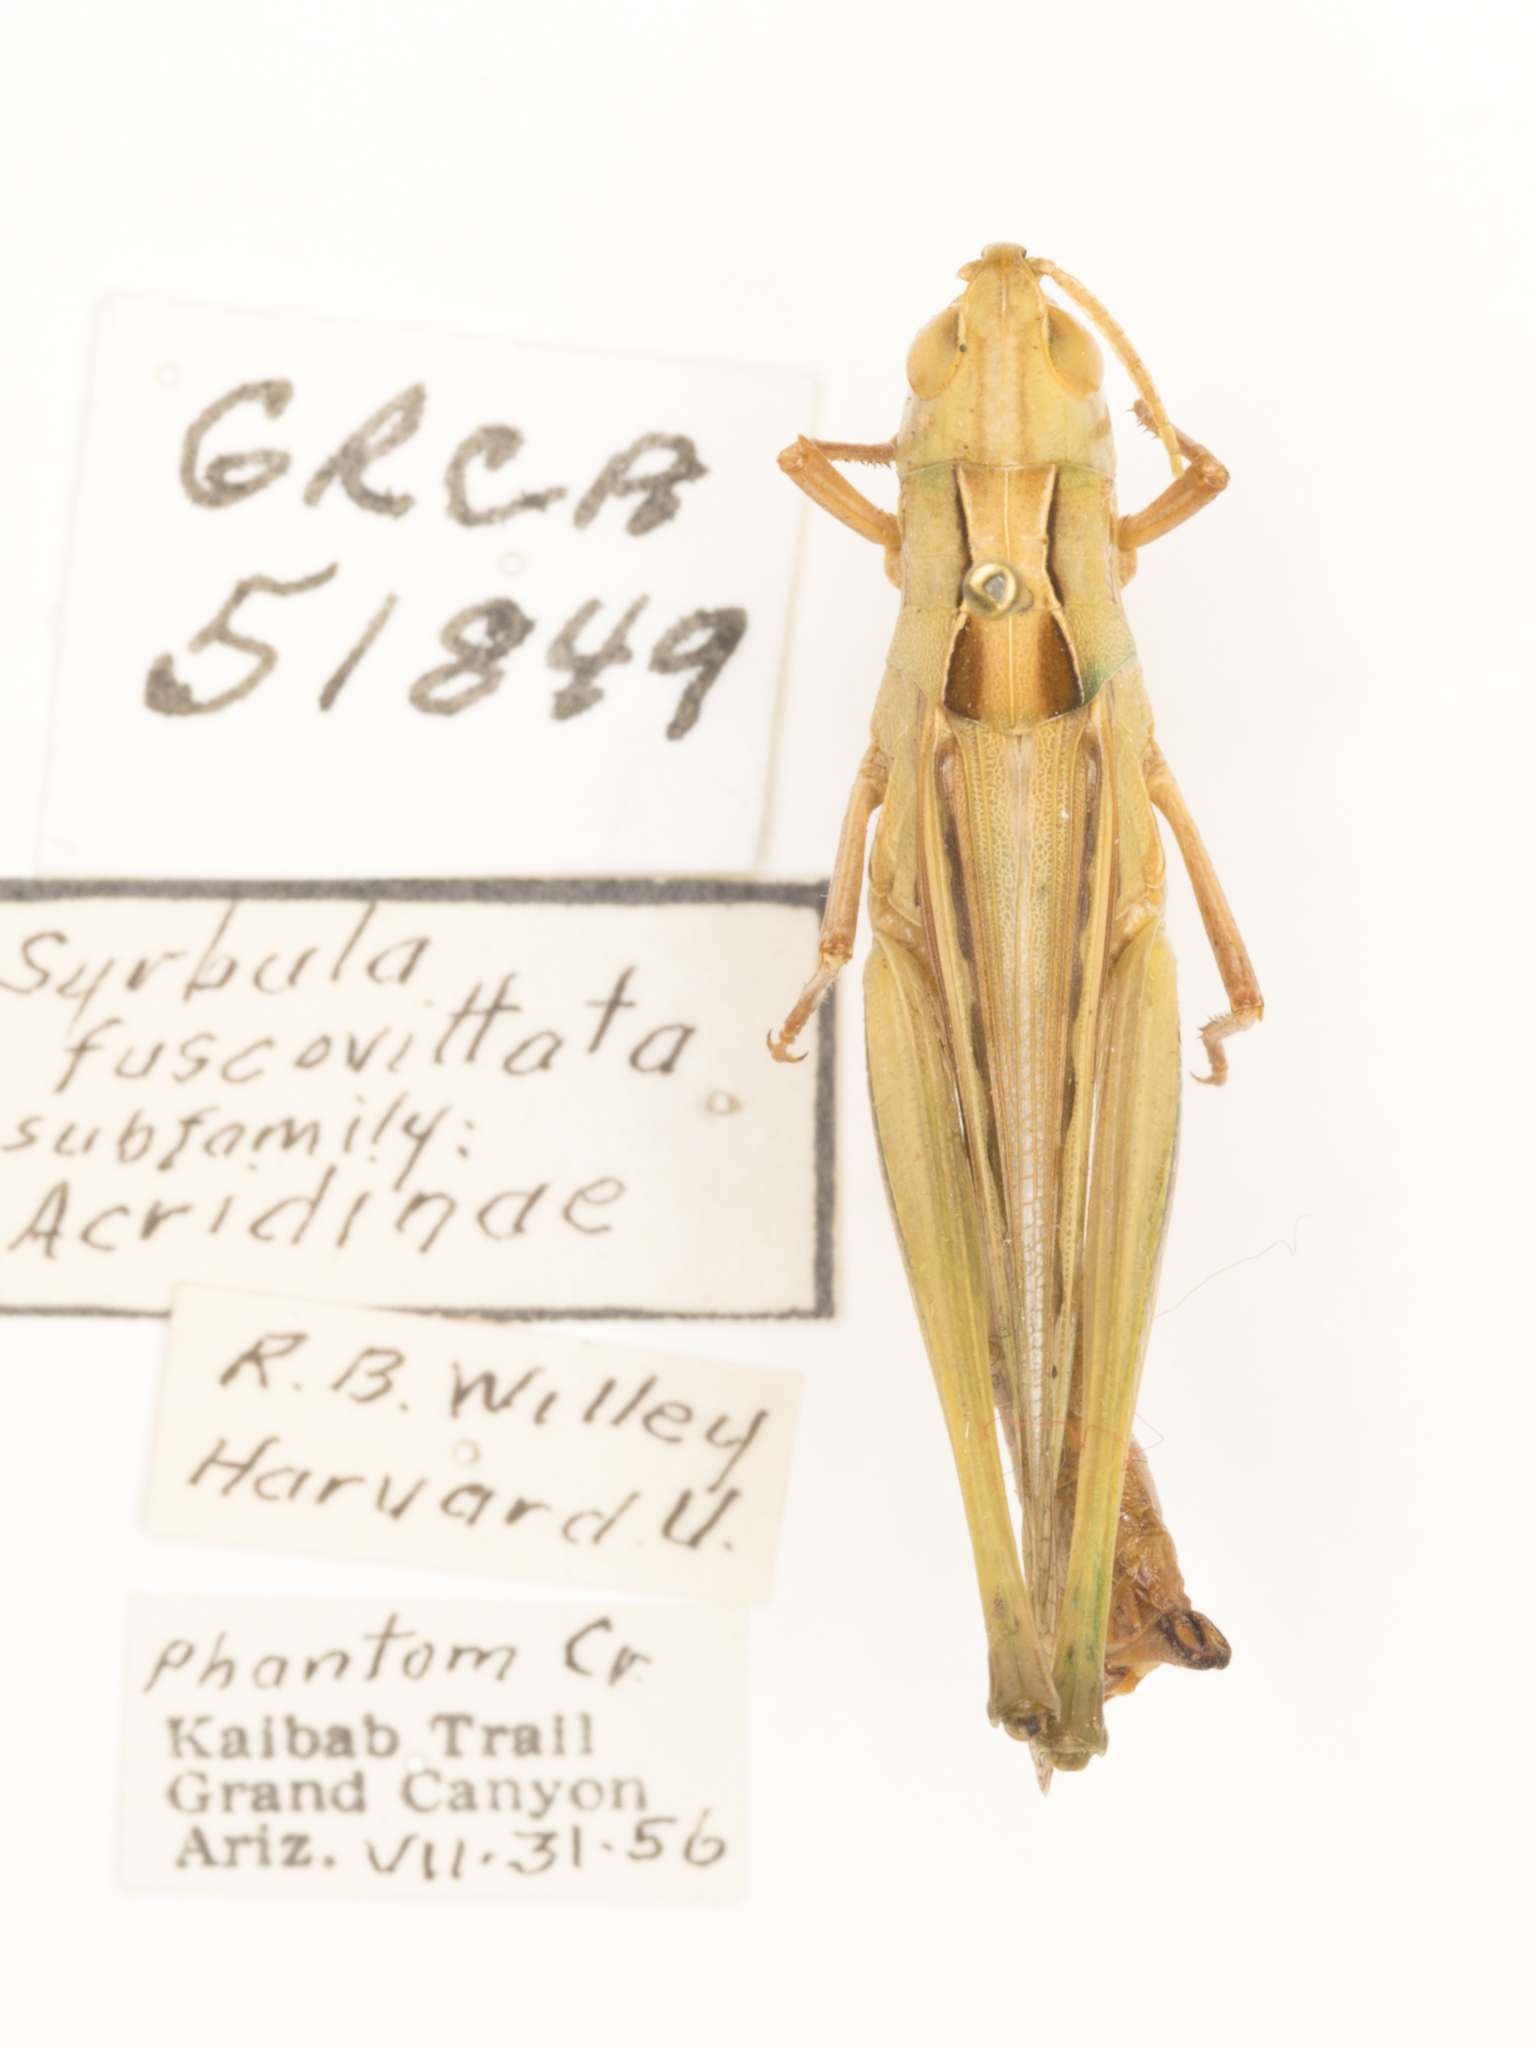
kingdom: Animalia
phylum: Arthropoda
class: Insecta
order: Orthoptera
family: Acrididae
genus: Syrbula
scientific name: Syrbula montezuma
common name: Montezuma's grasshopper
